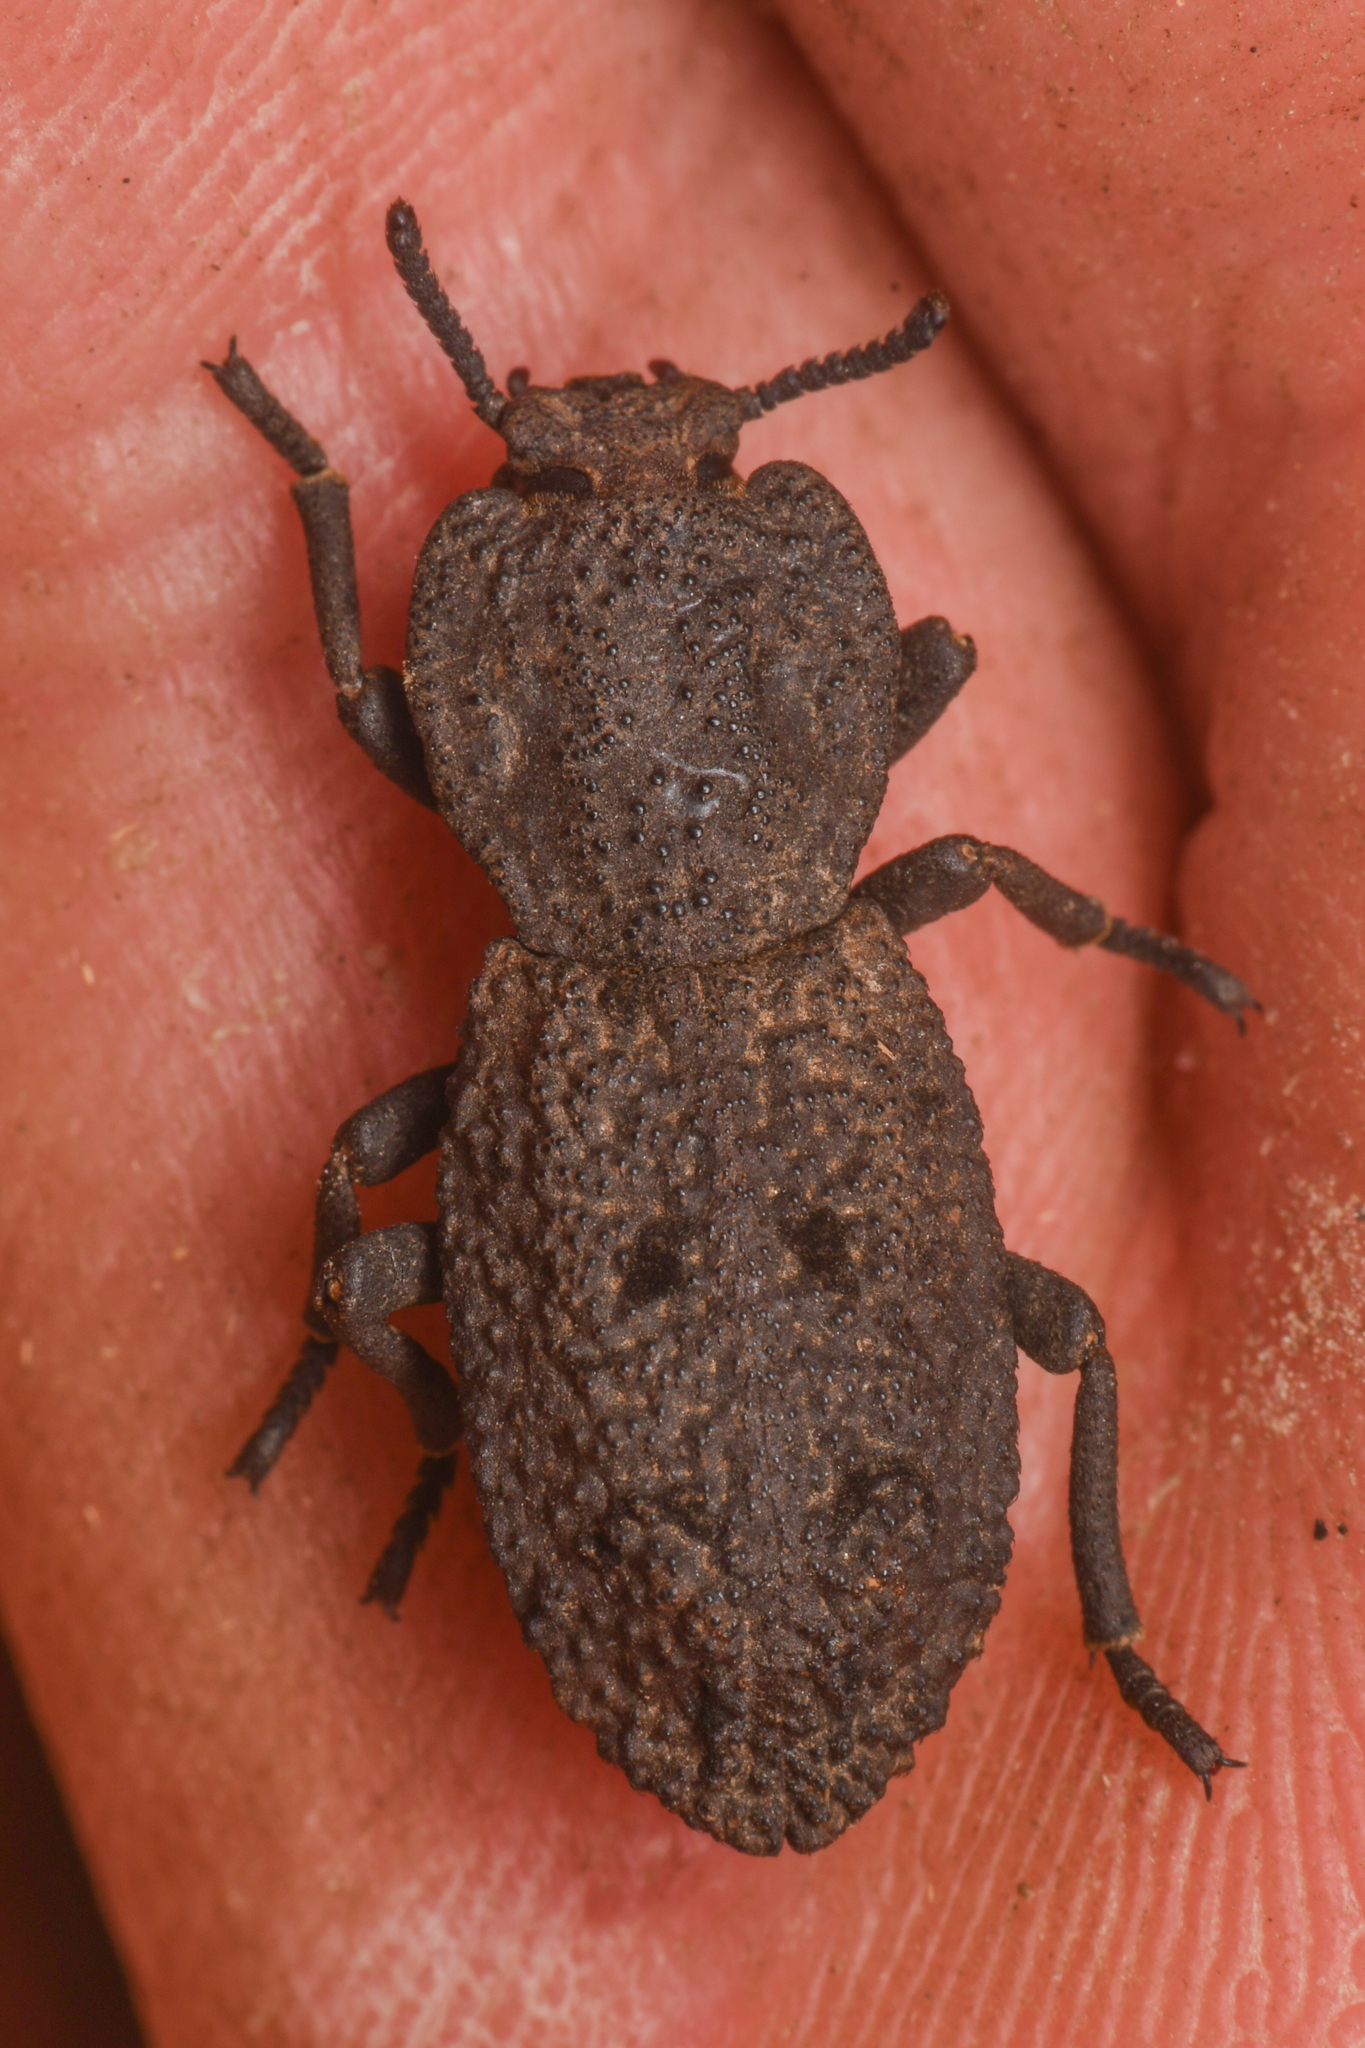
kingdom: Animalia
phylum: Arthropoda
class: Insecta
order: Coleoptera
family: Zopheridae
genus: Phloeodes
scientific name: Phloeodes diabolicus
